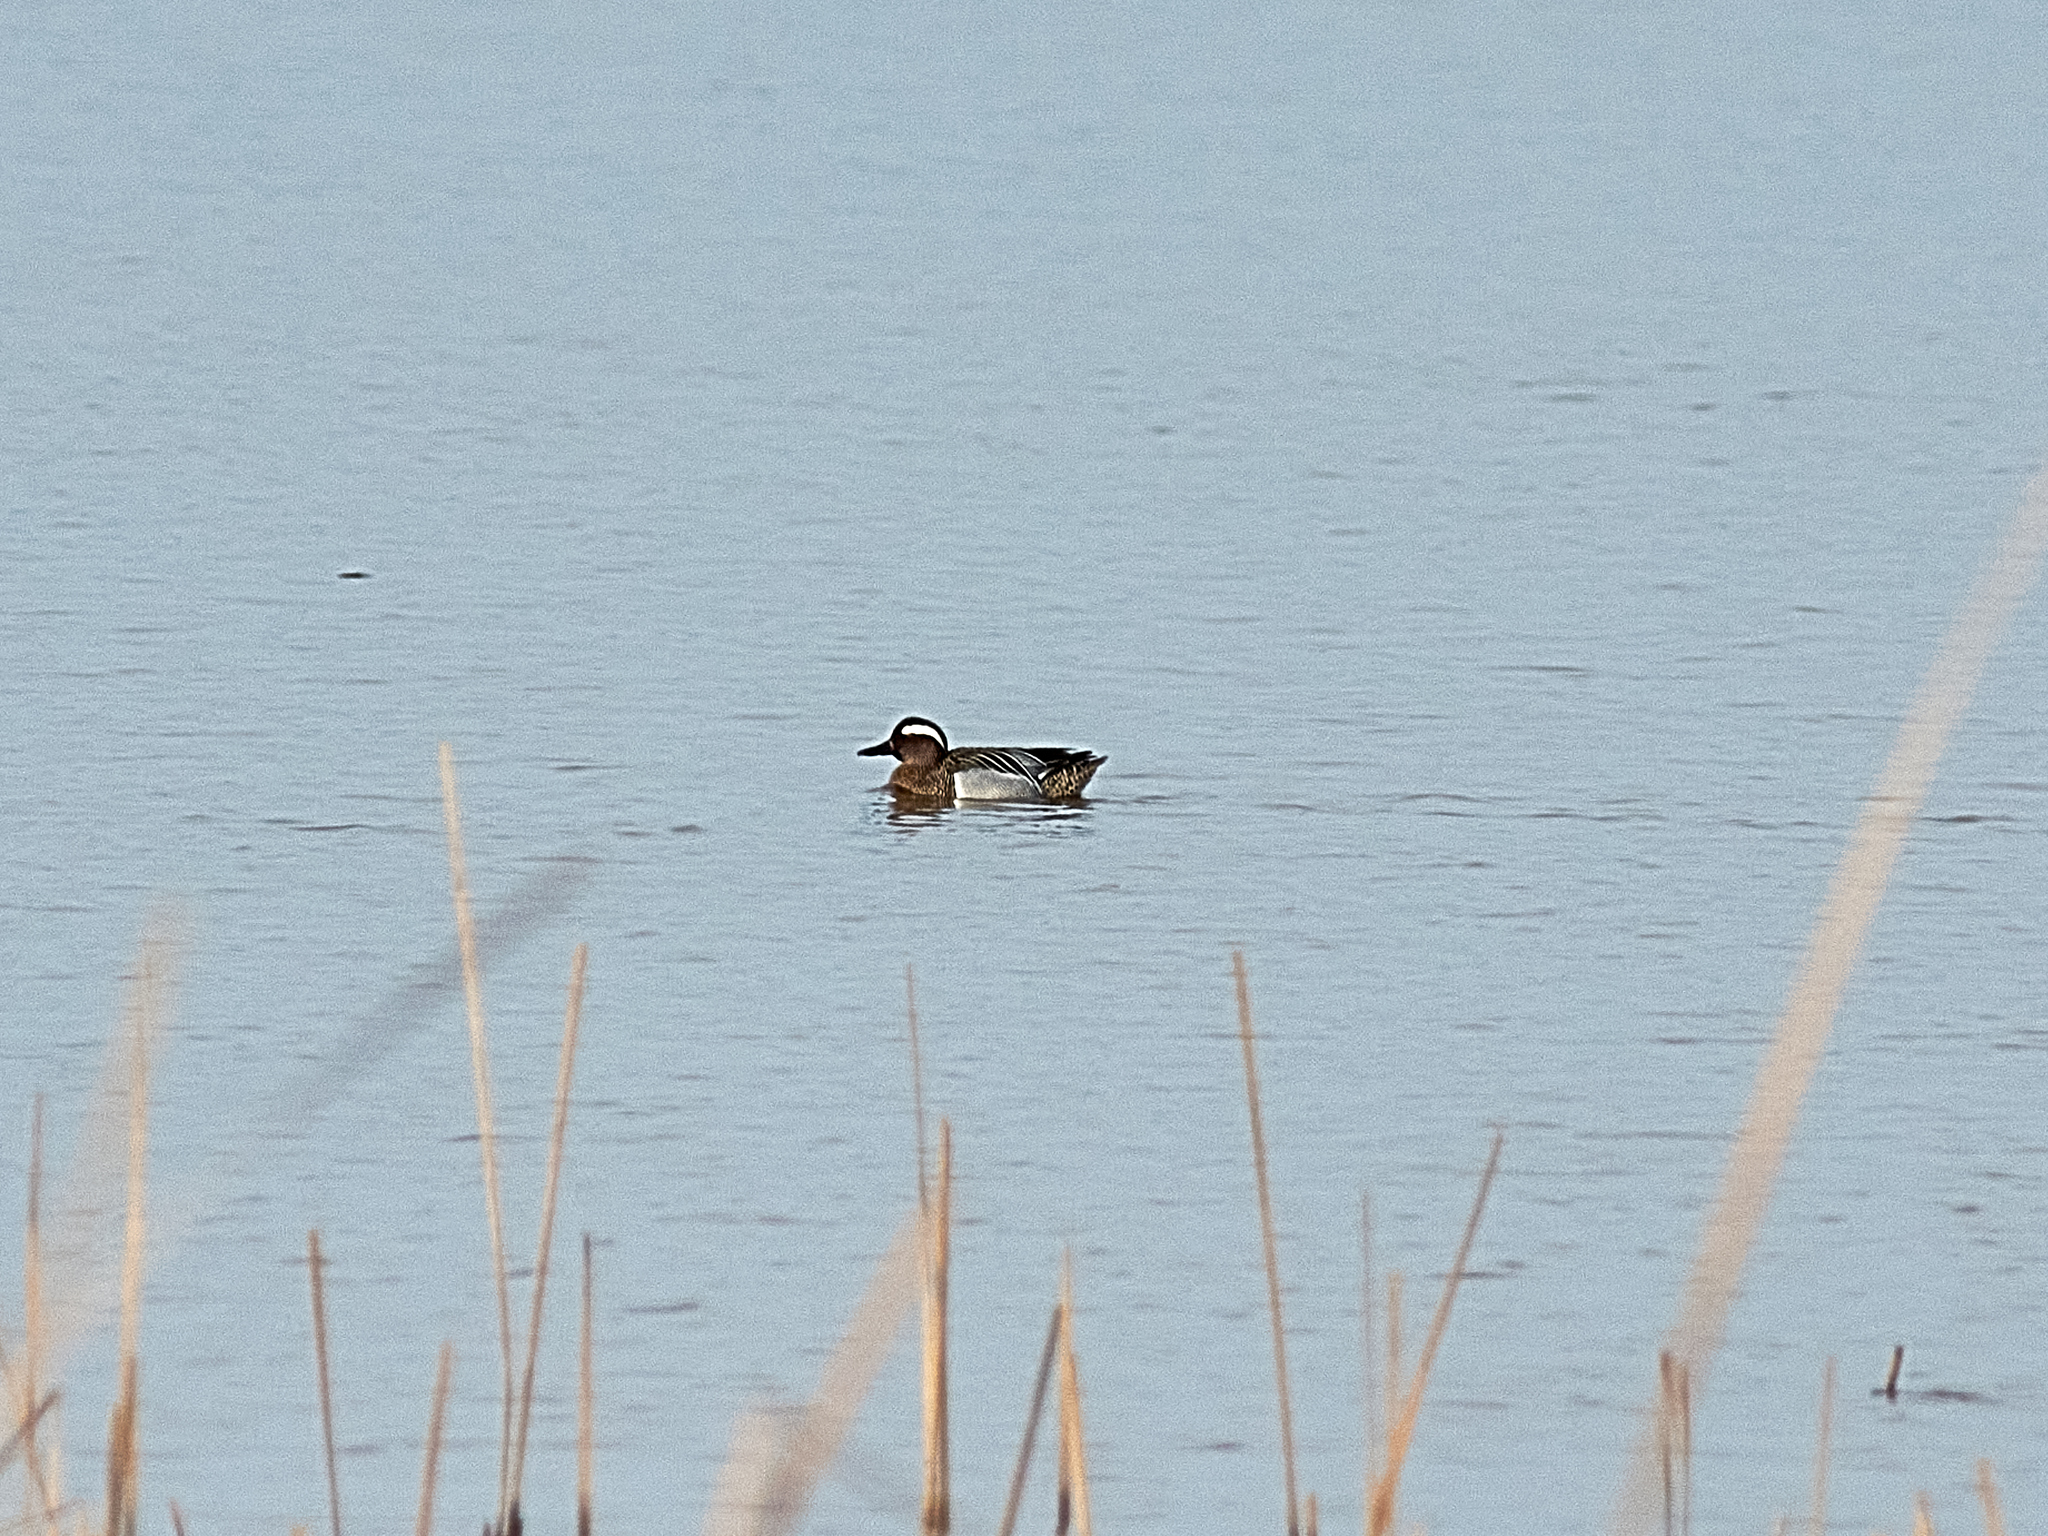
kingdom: Animalia
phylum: Chordata
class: Aves
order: Anseriformes
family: Anatidae
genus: Spatula
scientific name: Spatula querquedula
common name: Garganey
